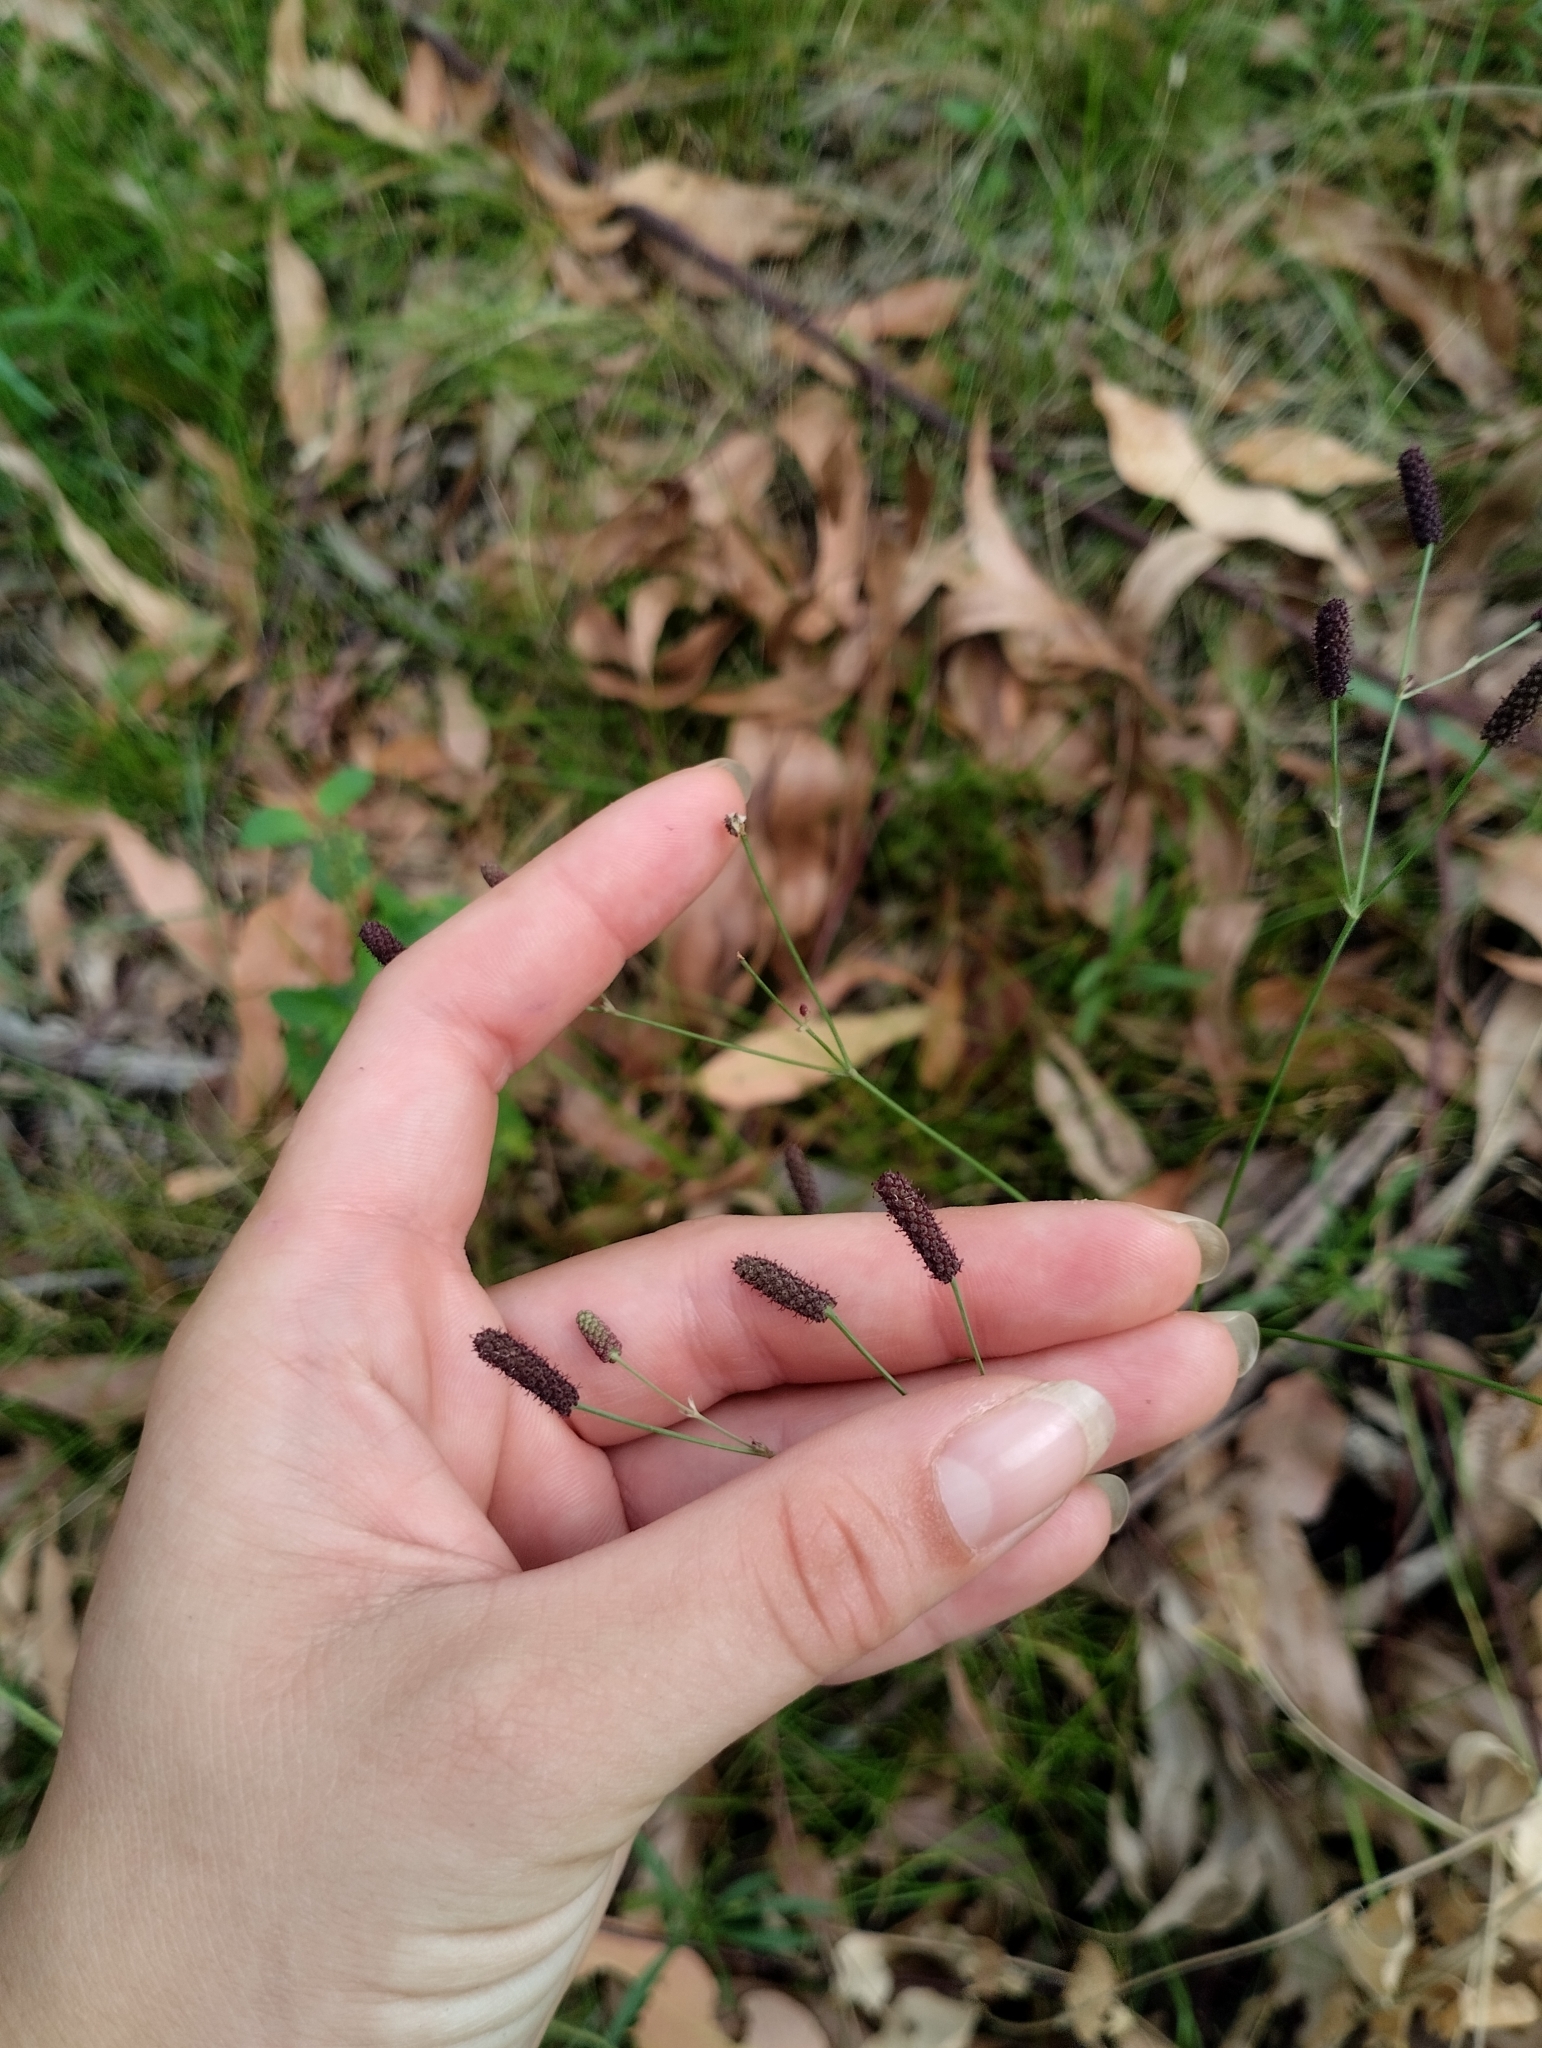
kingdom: Plantae
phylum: Tracheophyta
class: Magnoliopsida
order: Apiales
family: Apiaceae
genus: Eryngium
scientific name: Eryngium ebracteatum
